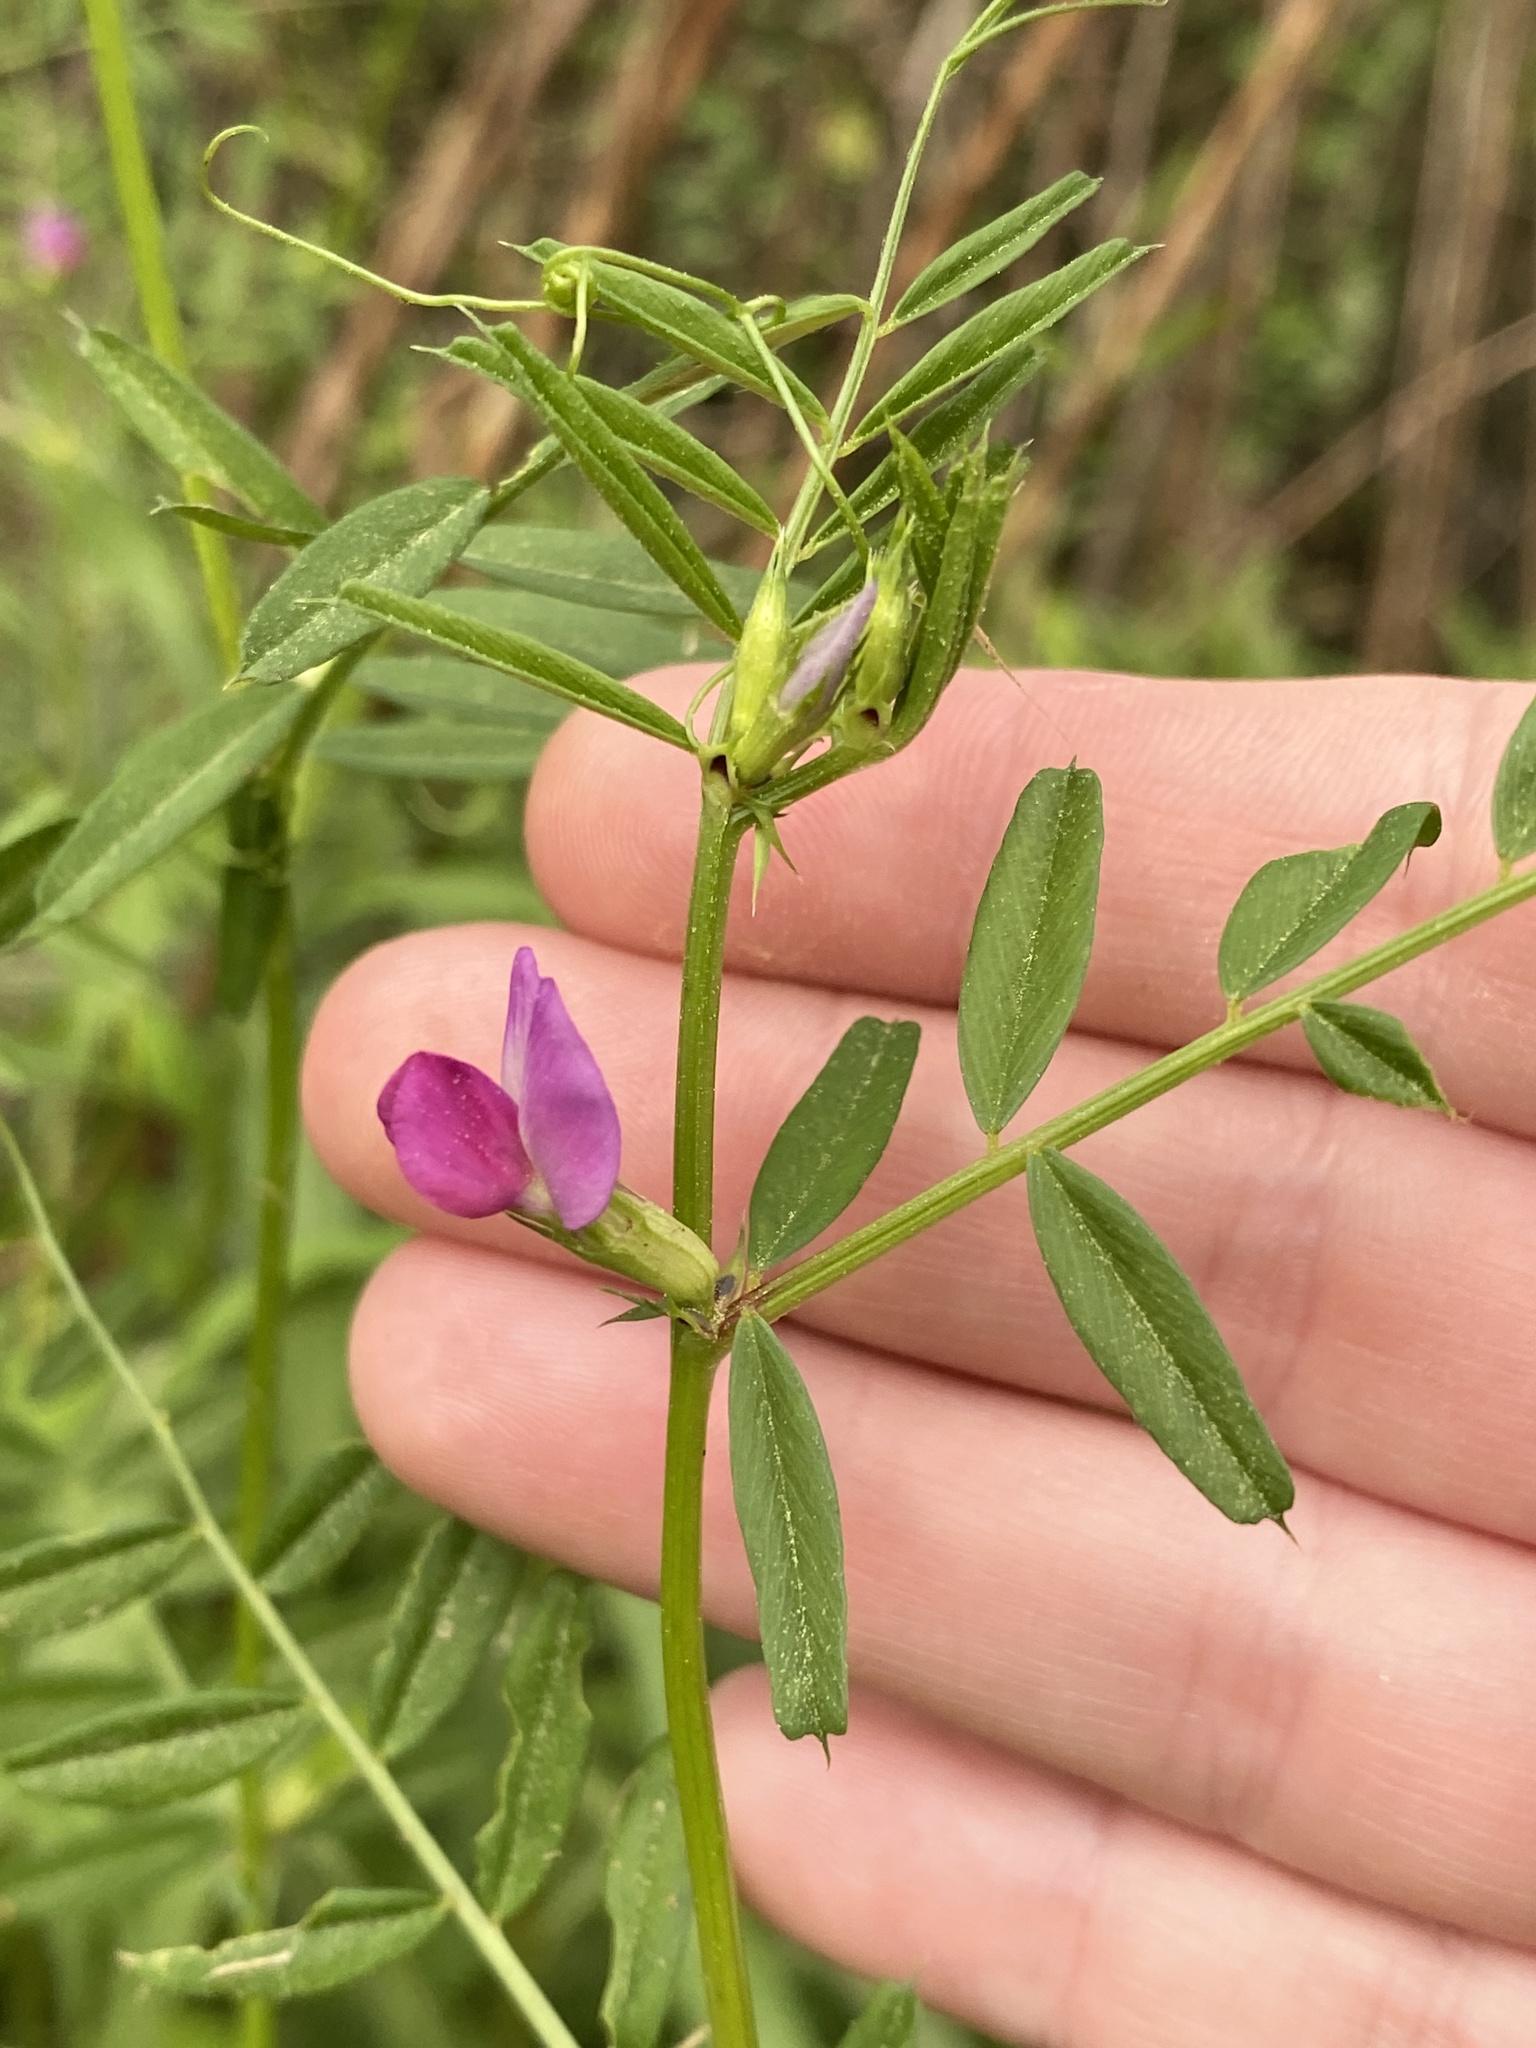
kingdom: Plantae
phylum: Tracheophyta
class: Magnoliopsida
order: Fabales
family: Fabaceae
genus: Vicia
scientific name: Vicia sativa
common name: Garden vetch
